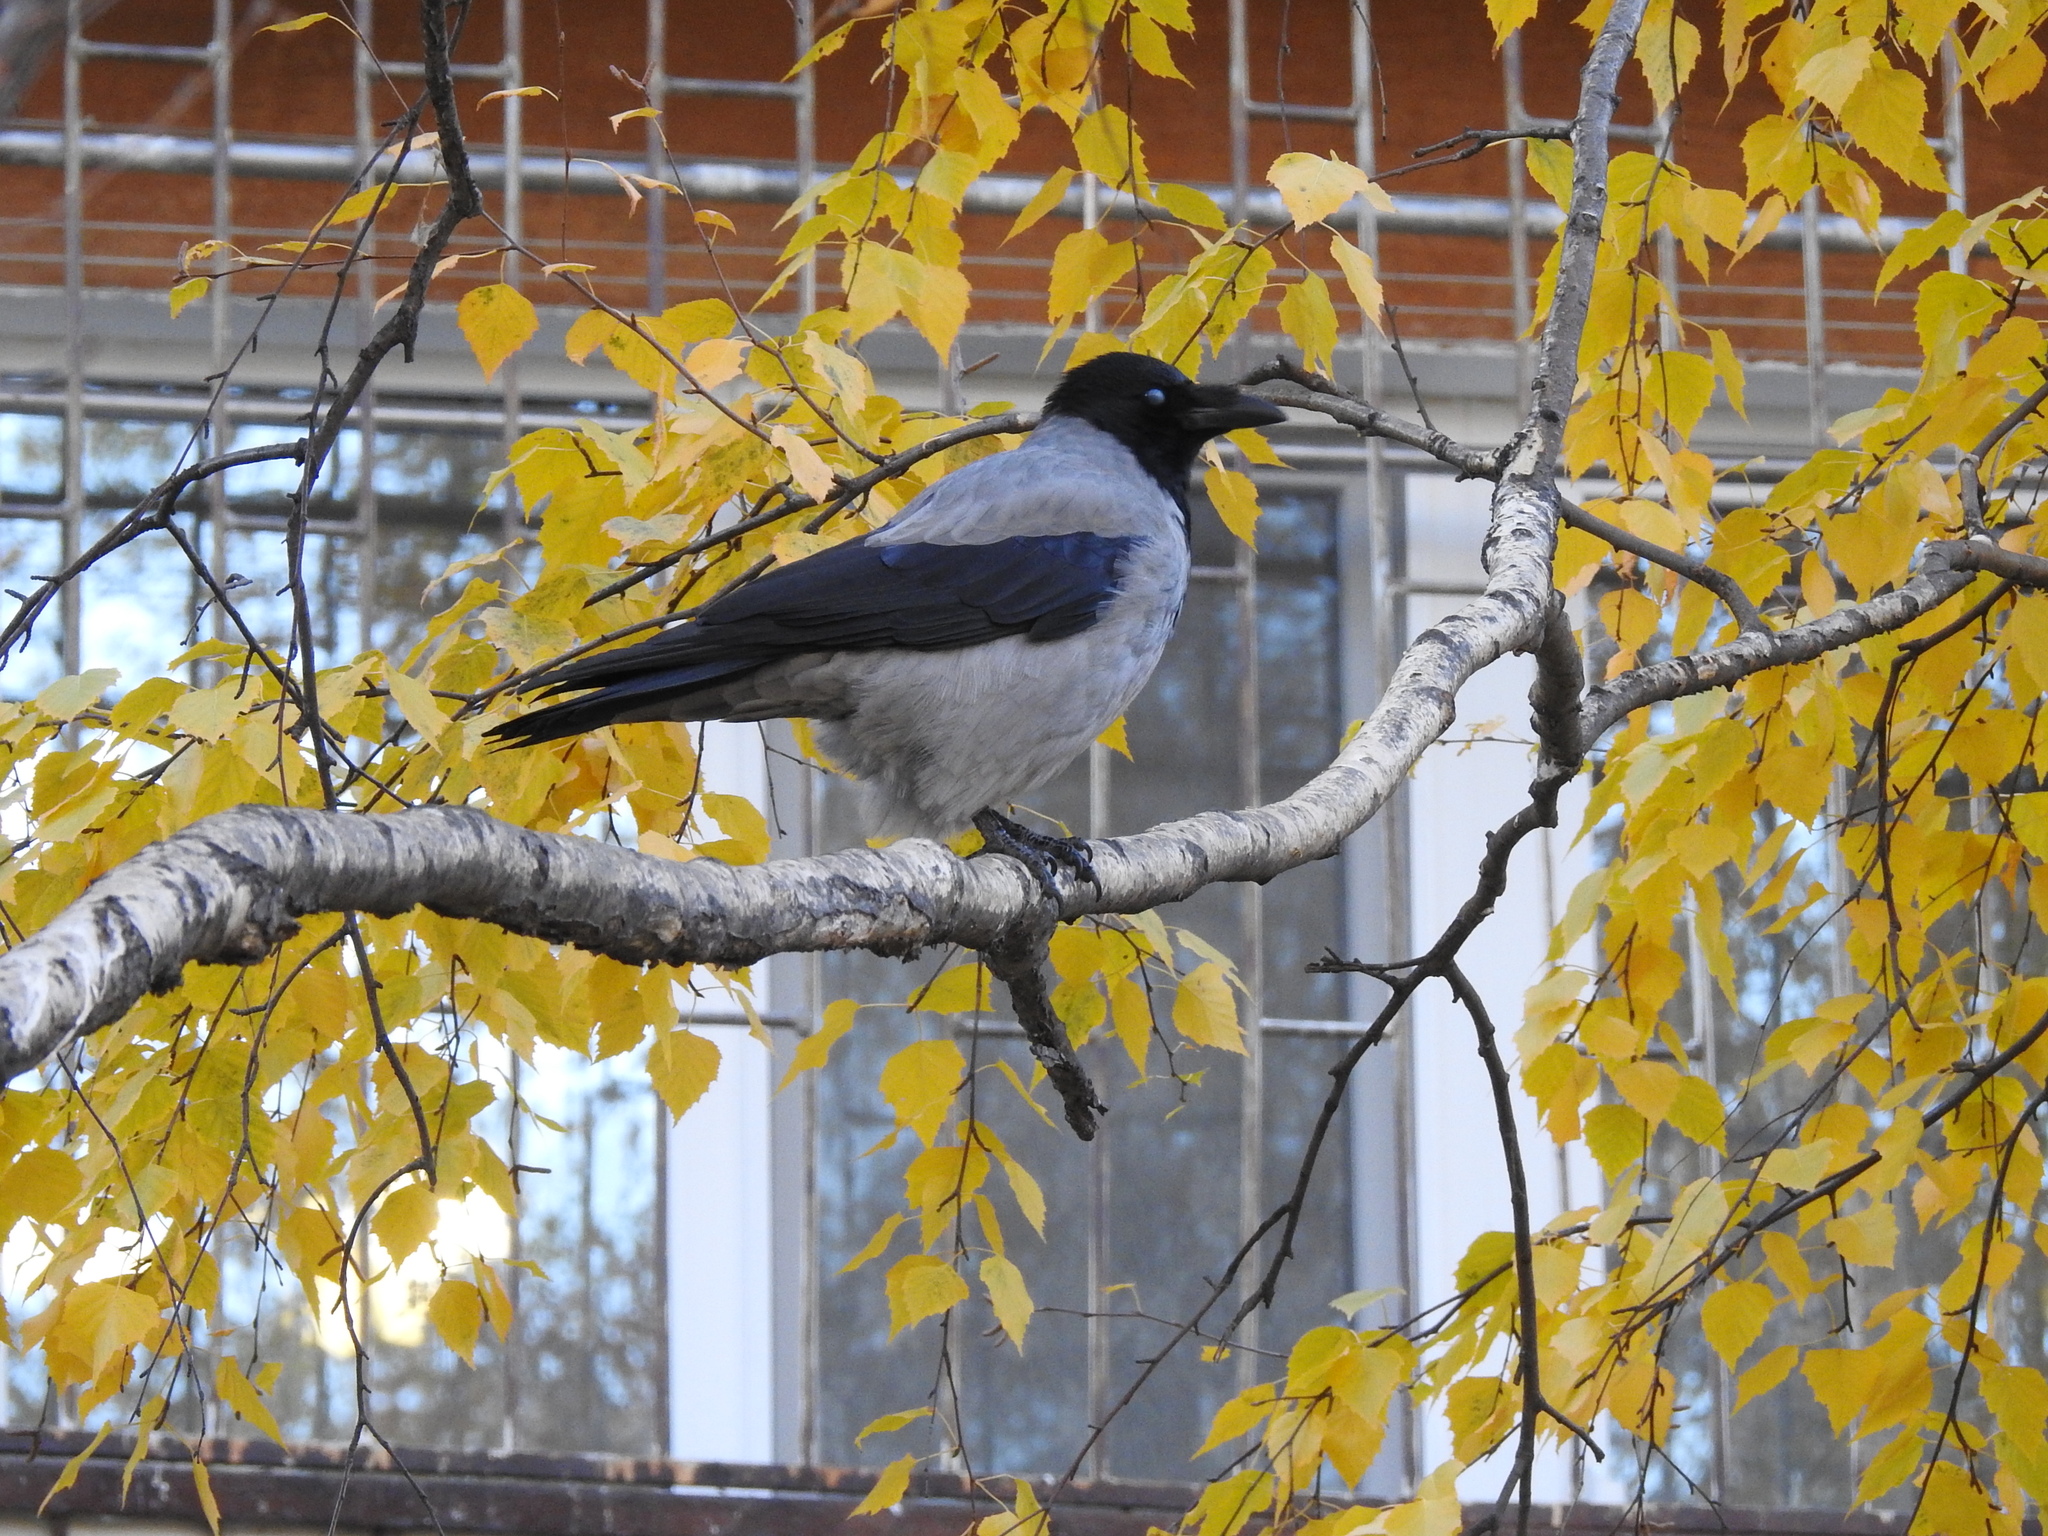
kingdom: Animalia
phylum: Chordata
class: Aves
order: Passeriformes
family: Corvidae
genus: Corvus
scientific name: Corvus cornix
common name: Hooded crow
